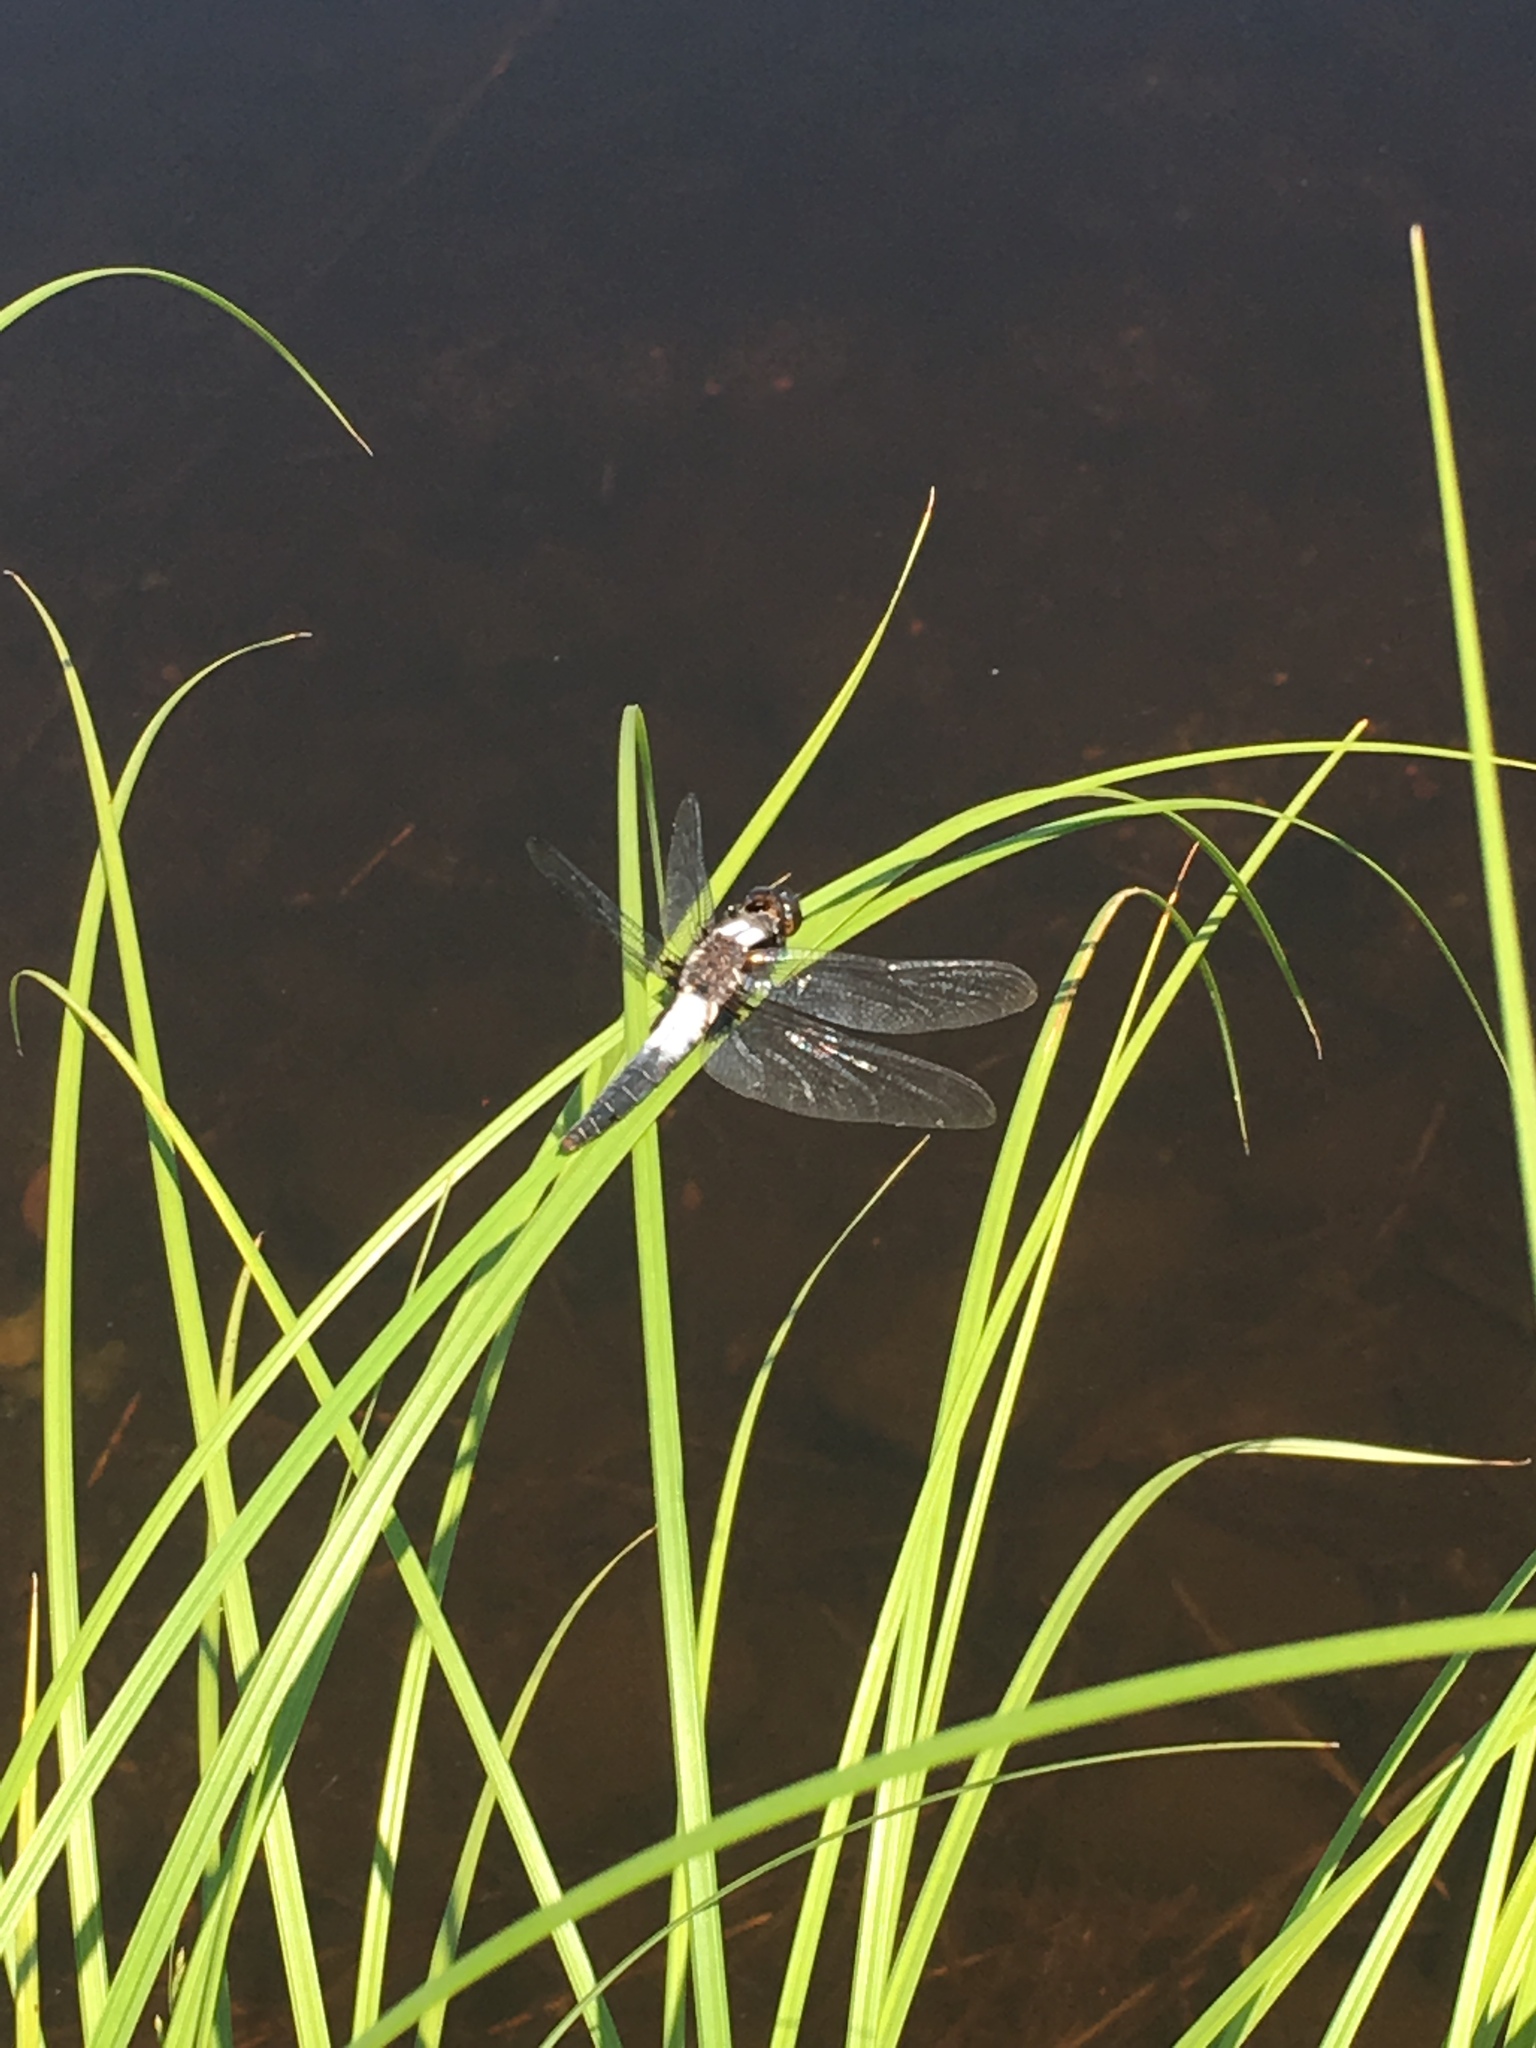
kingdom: Animalia
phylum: Arthropoda
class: Insecta
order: Odonata
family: Libellulidae
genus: Ladona
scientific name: Ladona julia
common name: Chalk-fronted corporal
